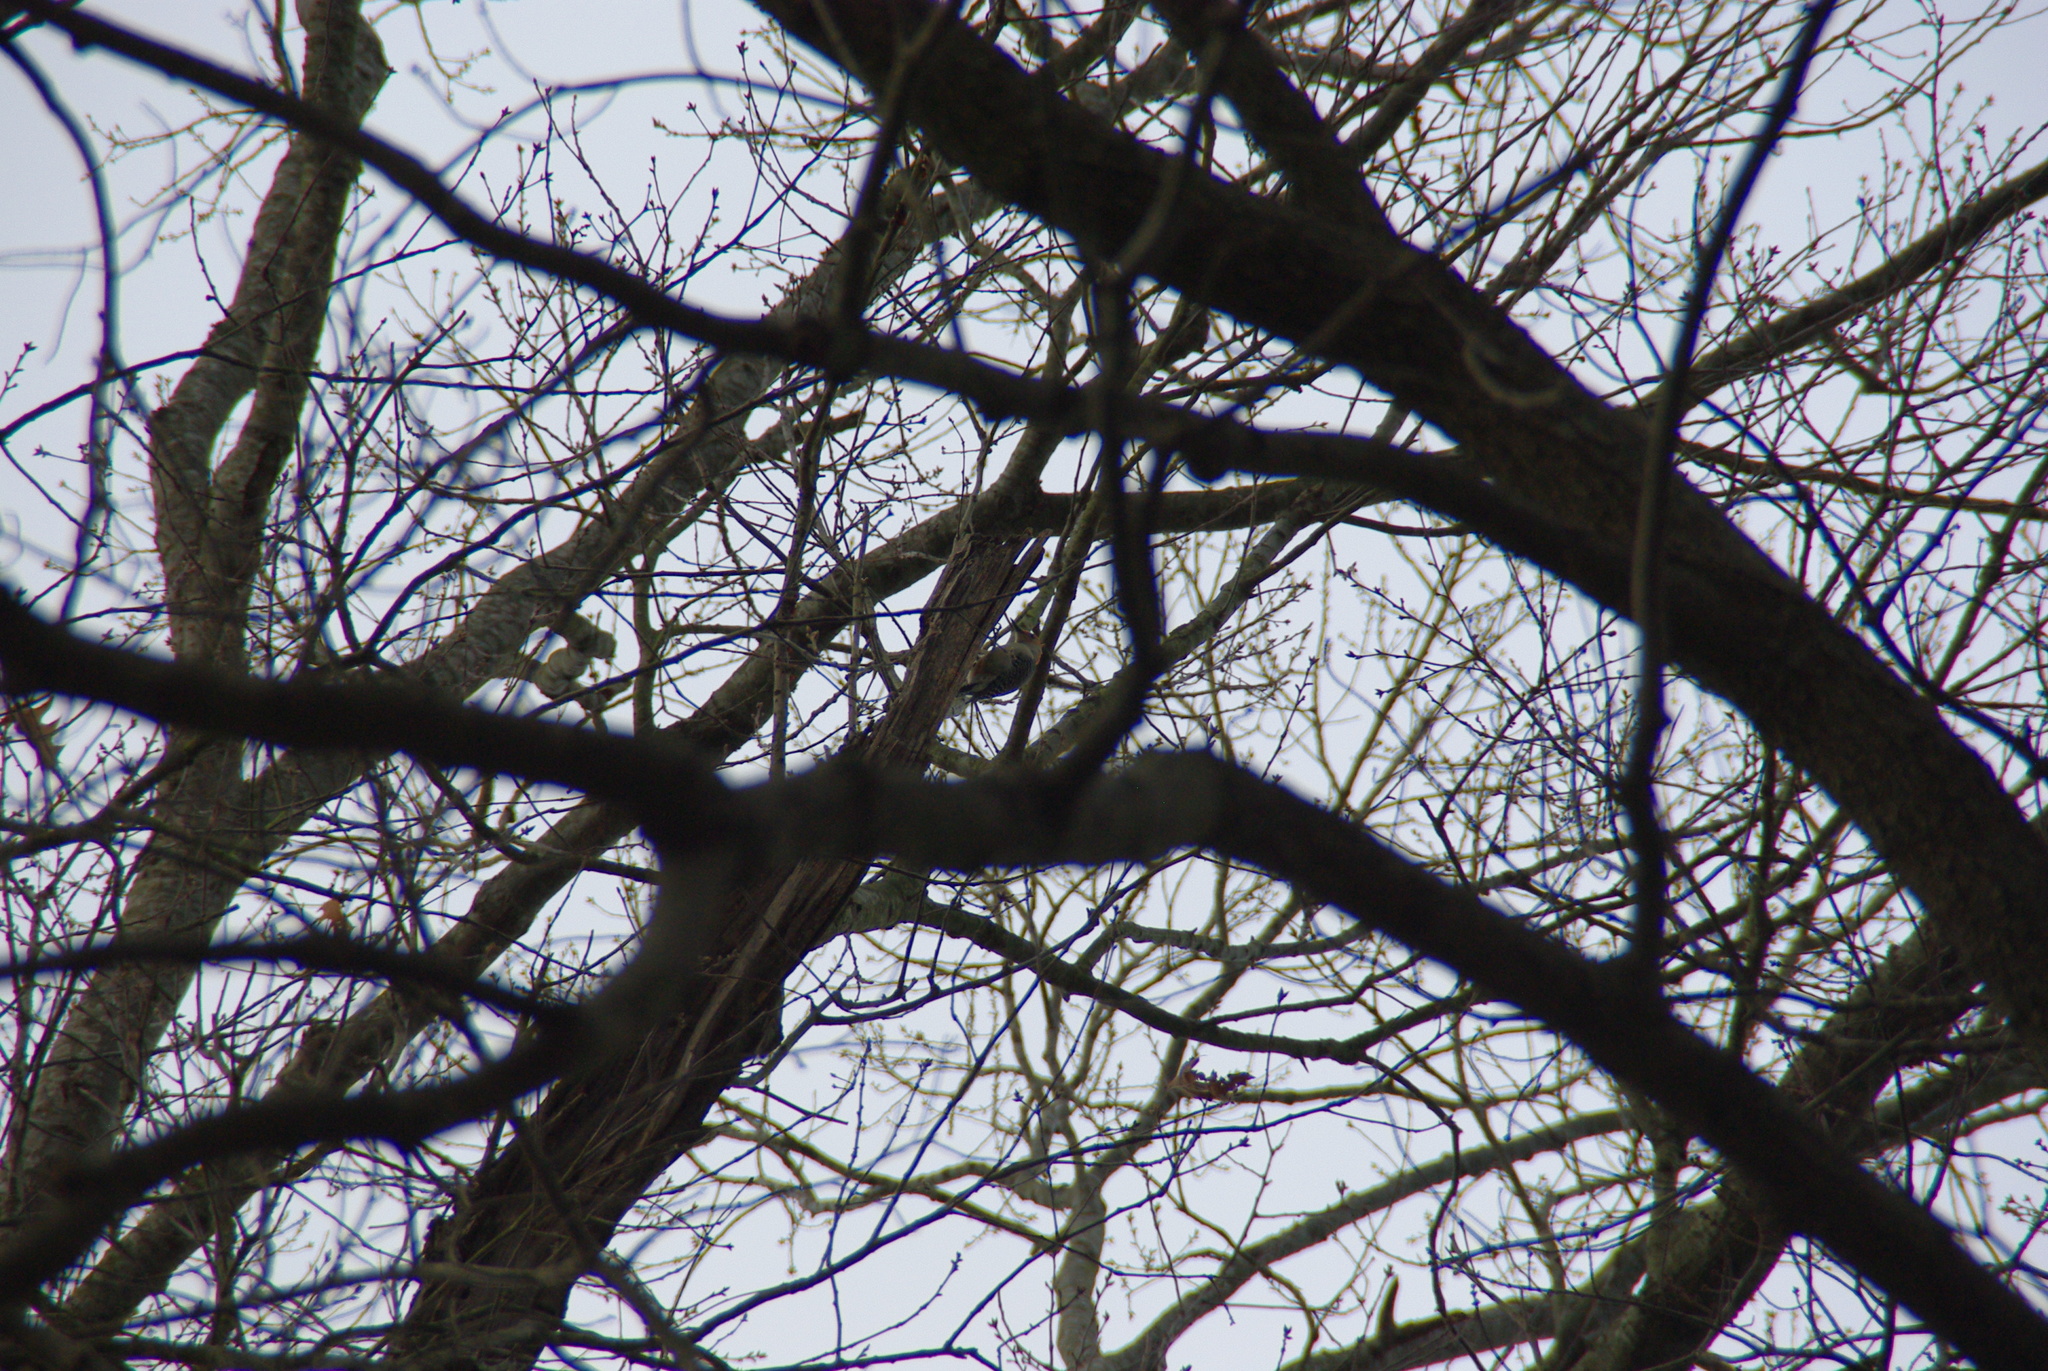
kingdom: Animalia
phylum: Chordata
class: Aves
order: Piciformes
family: Picidae
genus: Melanerpes
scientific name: Melanerpes carolinus
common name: Red-bellied woodpecker
